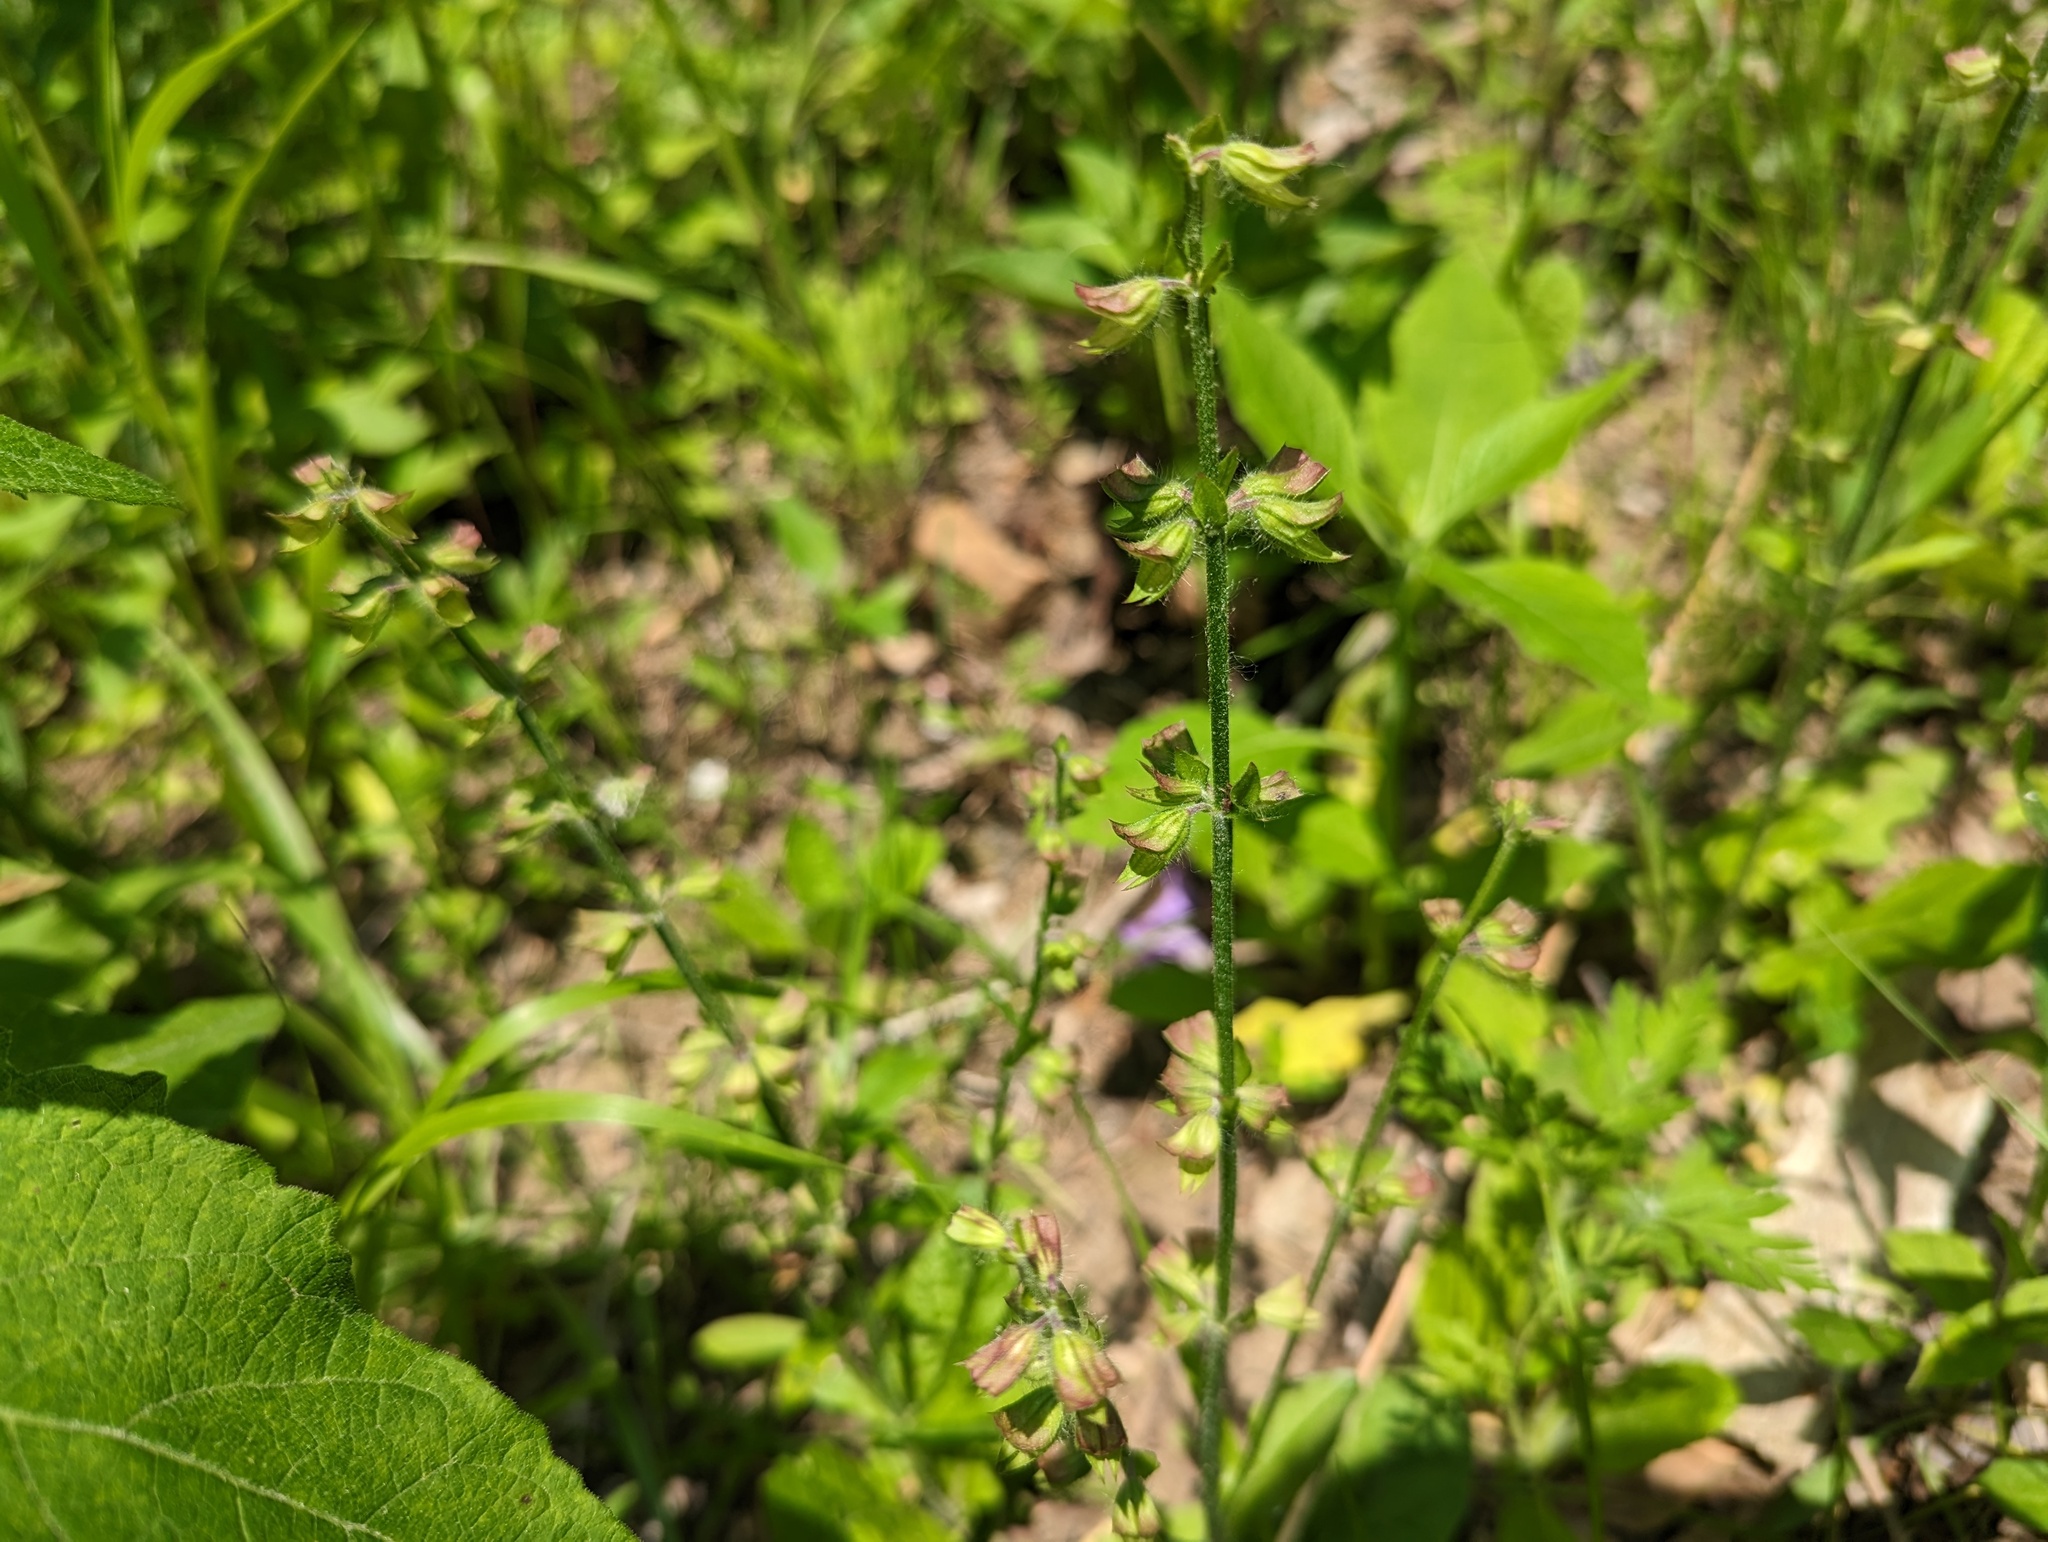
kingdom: Plantae
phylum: Tracheophyta
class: Magnoliopsida
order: Lamiales
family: Lamiaceae
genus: Salvia
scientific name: Salvia lyrata
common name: Cancerweed
